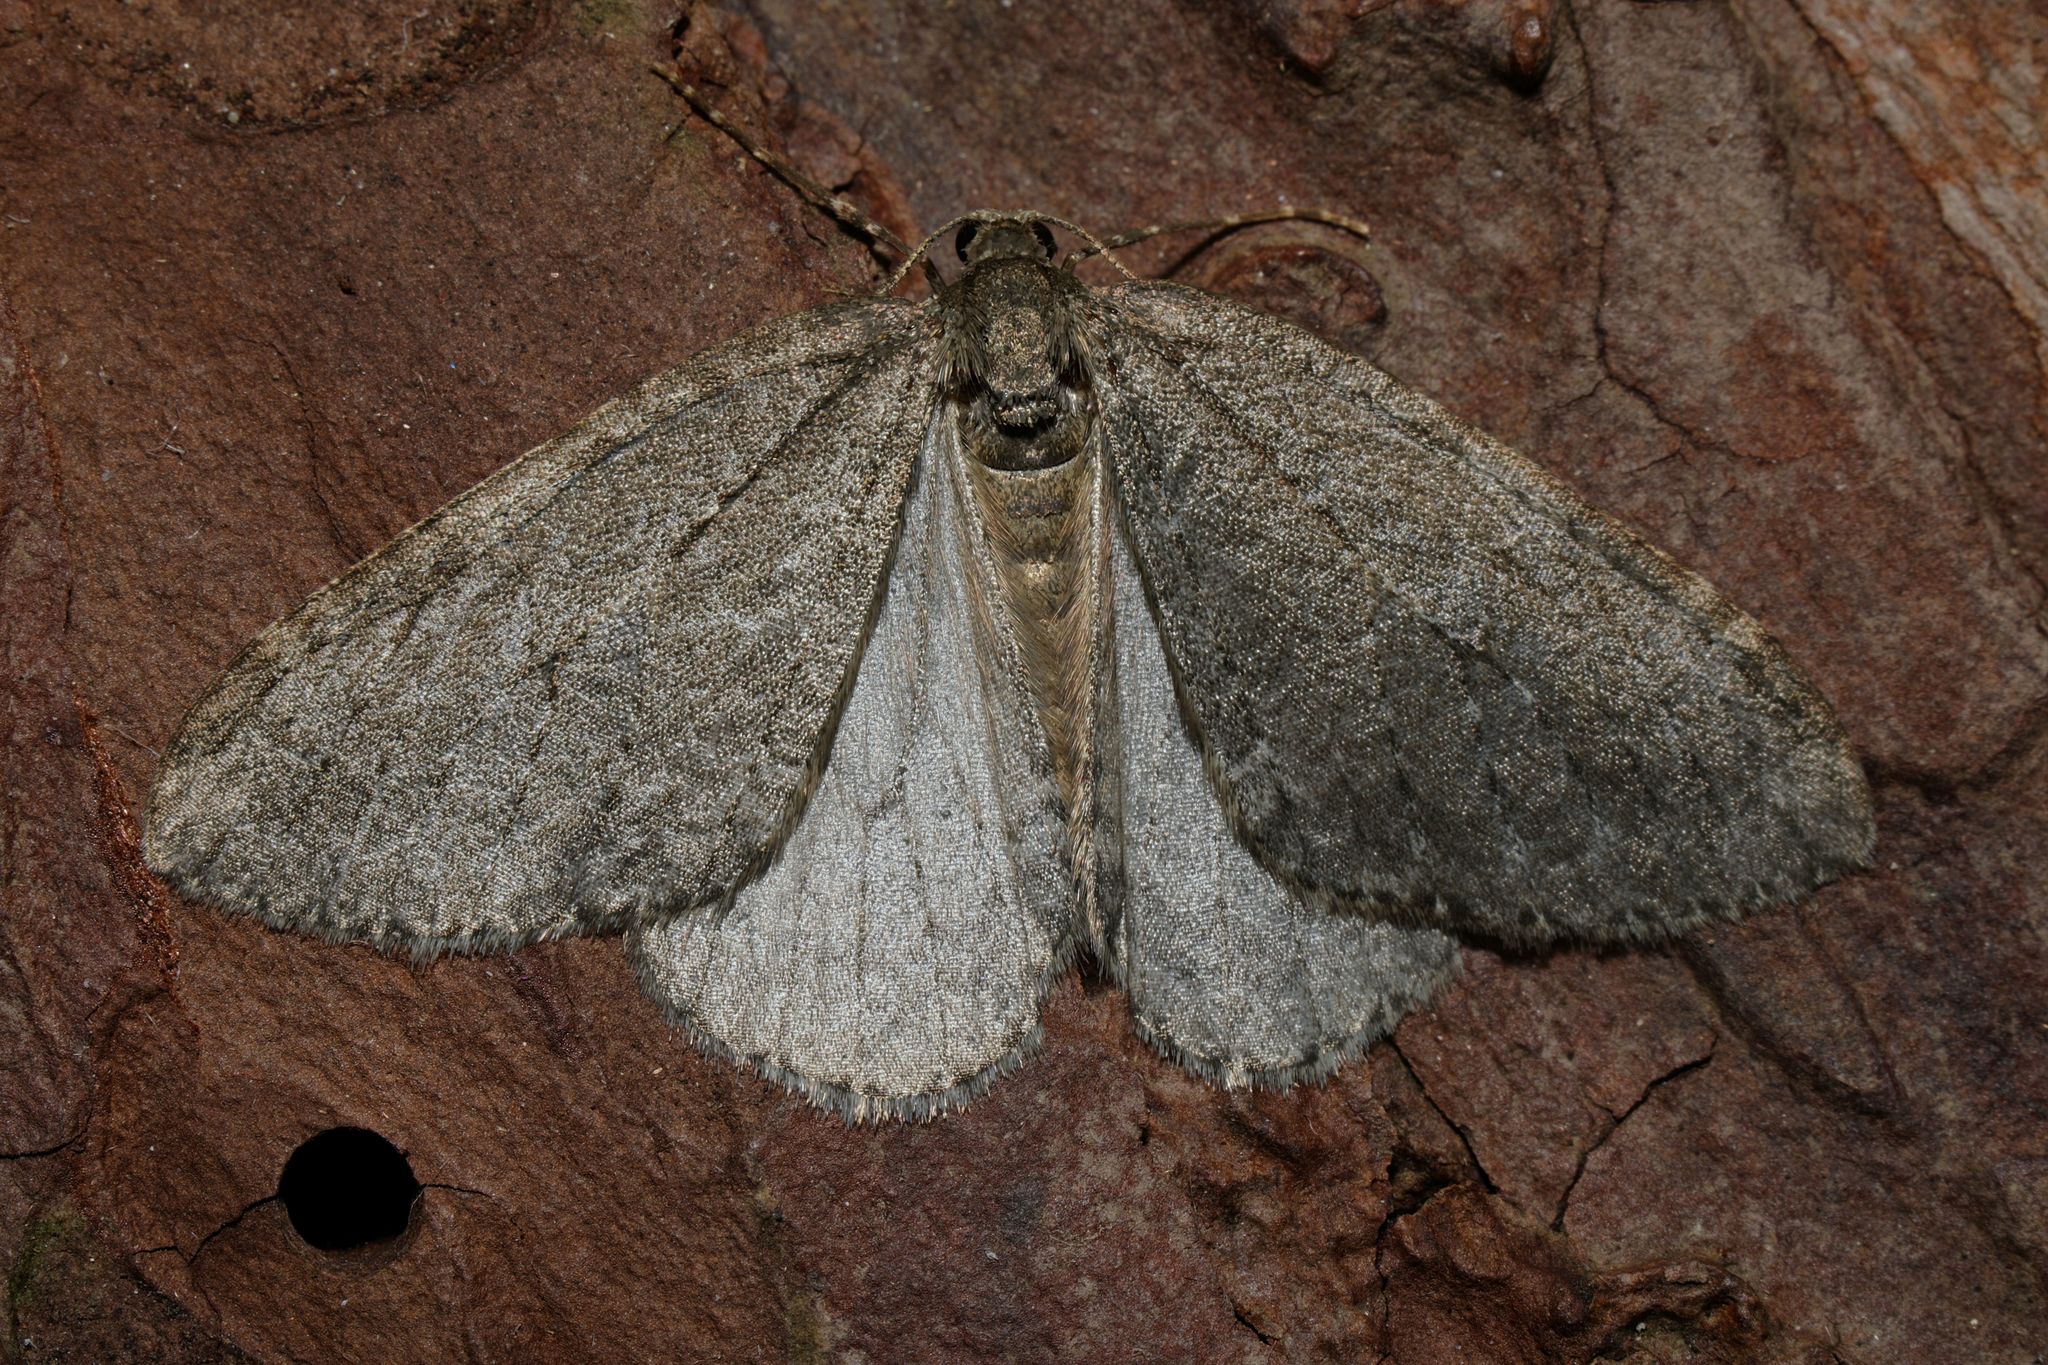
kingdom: Animalia
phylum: Arthropoda
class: Insecta
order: Lepidoptera
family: Geometridae
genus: Epirrita
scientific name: Epirrita dilutata
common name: November moth
